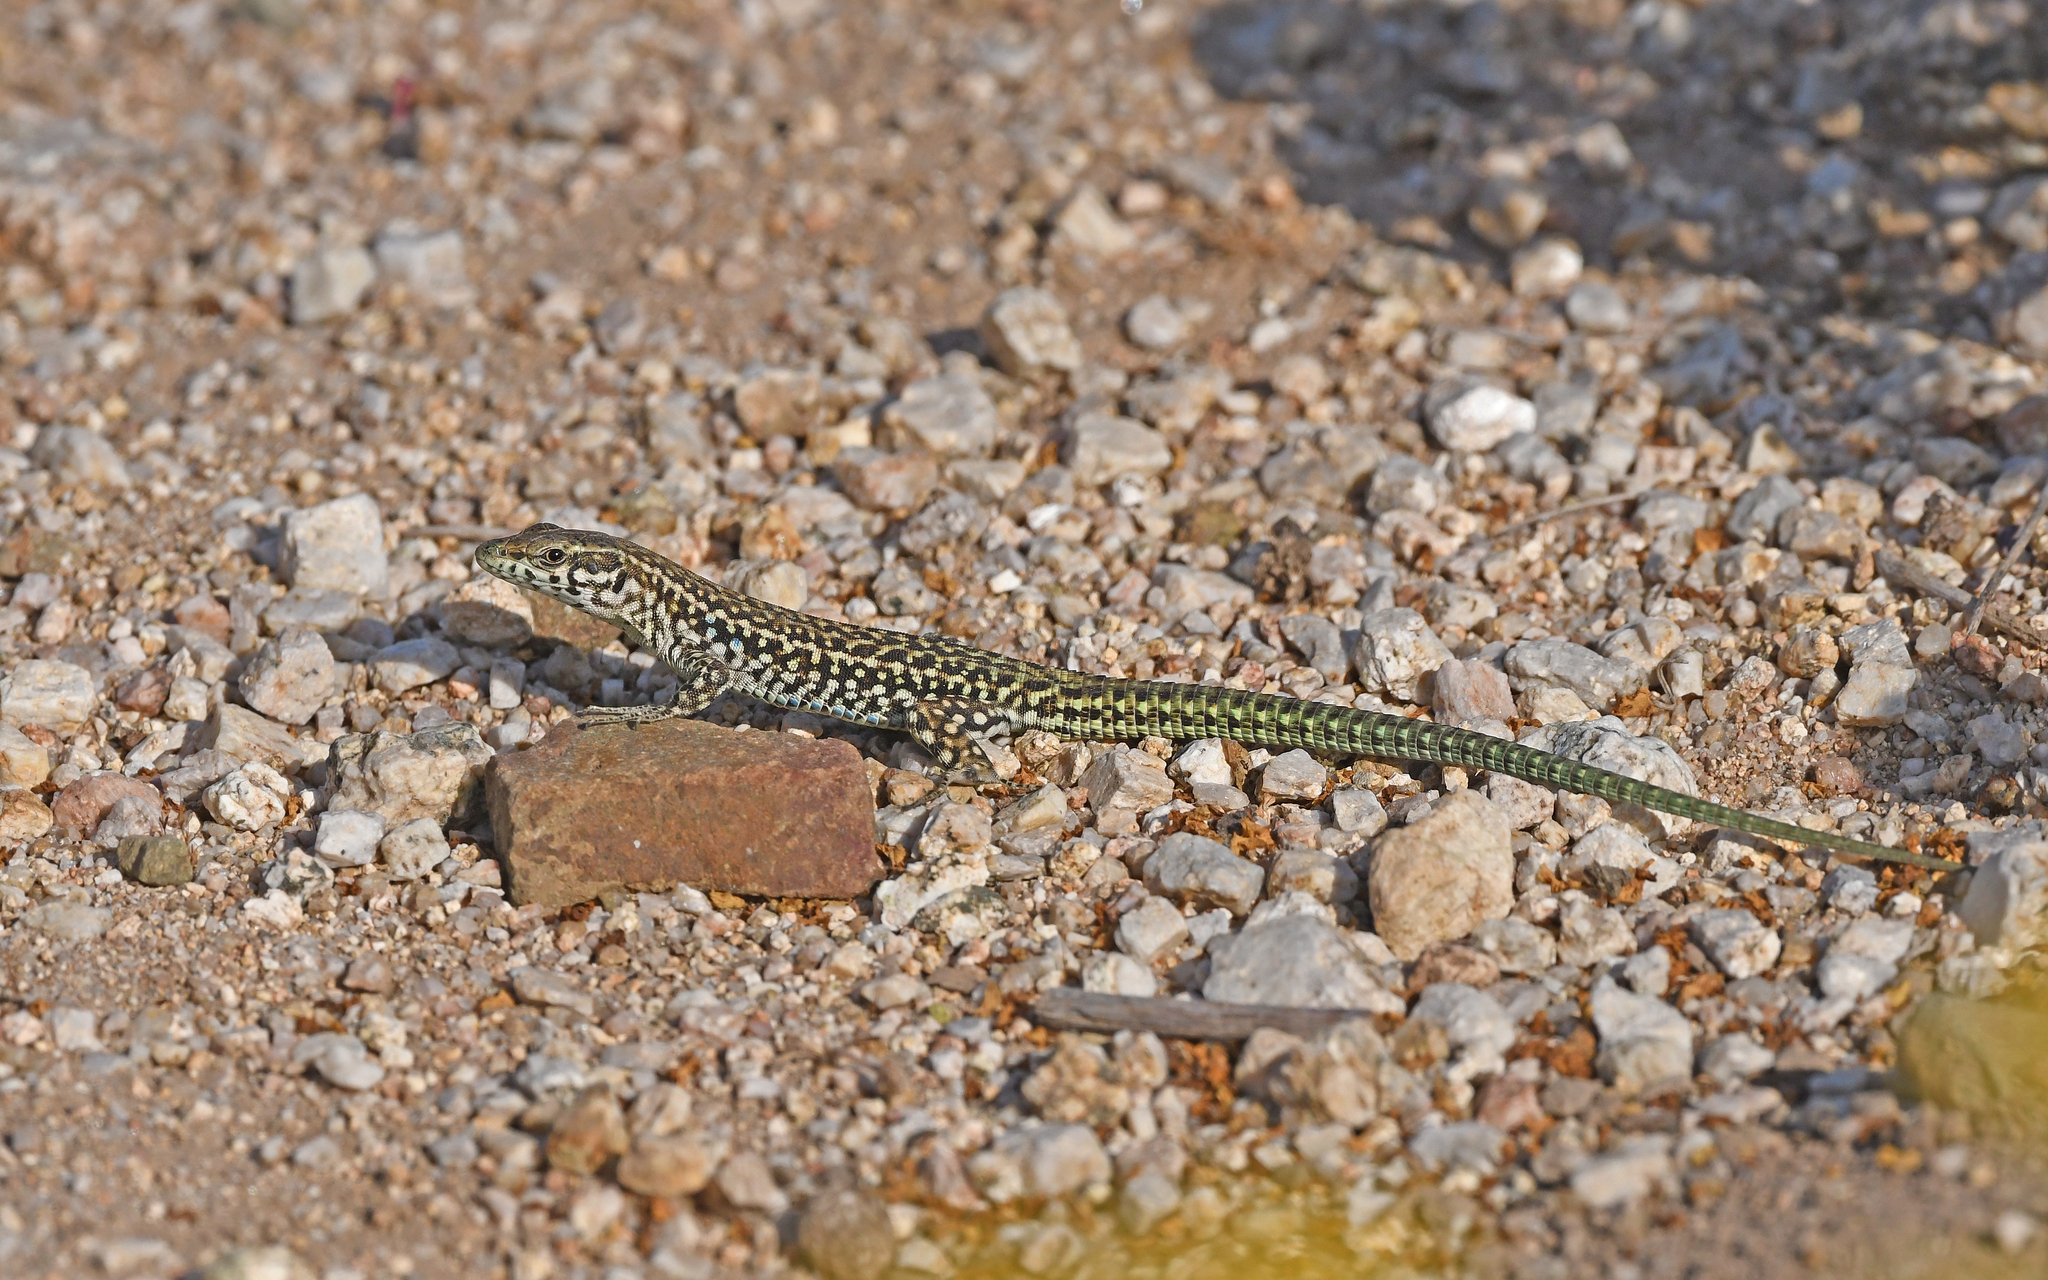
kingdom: Animalia
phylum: Chordata
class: Squamata
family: Lacertidae
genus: Podarcis
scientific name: Podarcis tiliguerta
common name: Tyrrhenian wall lizard
